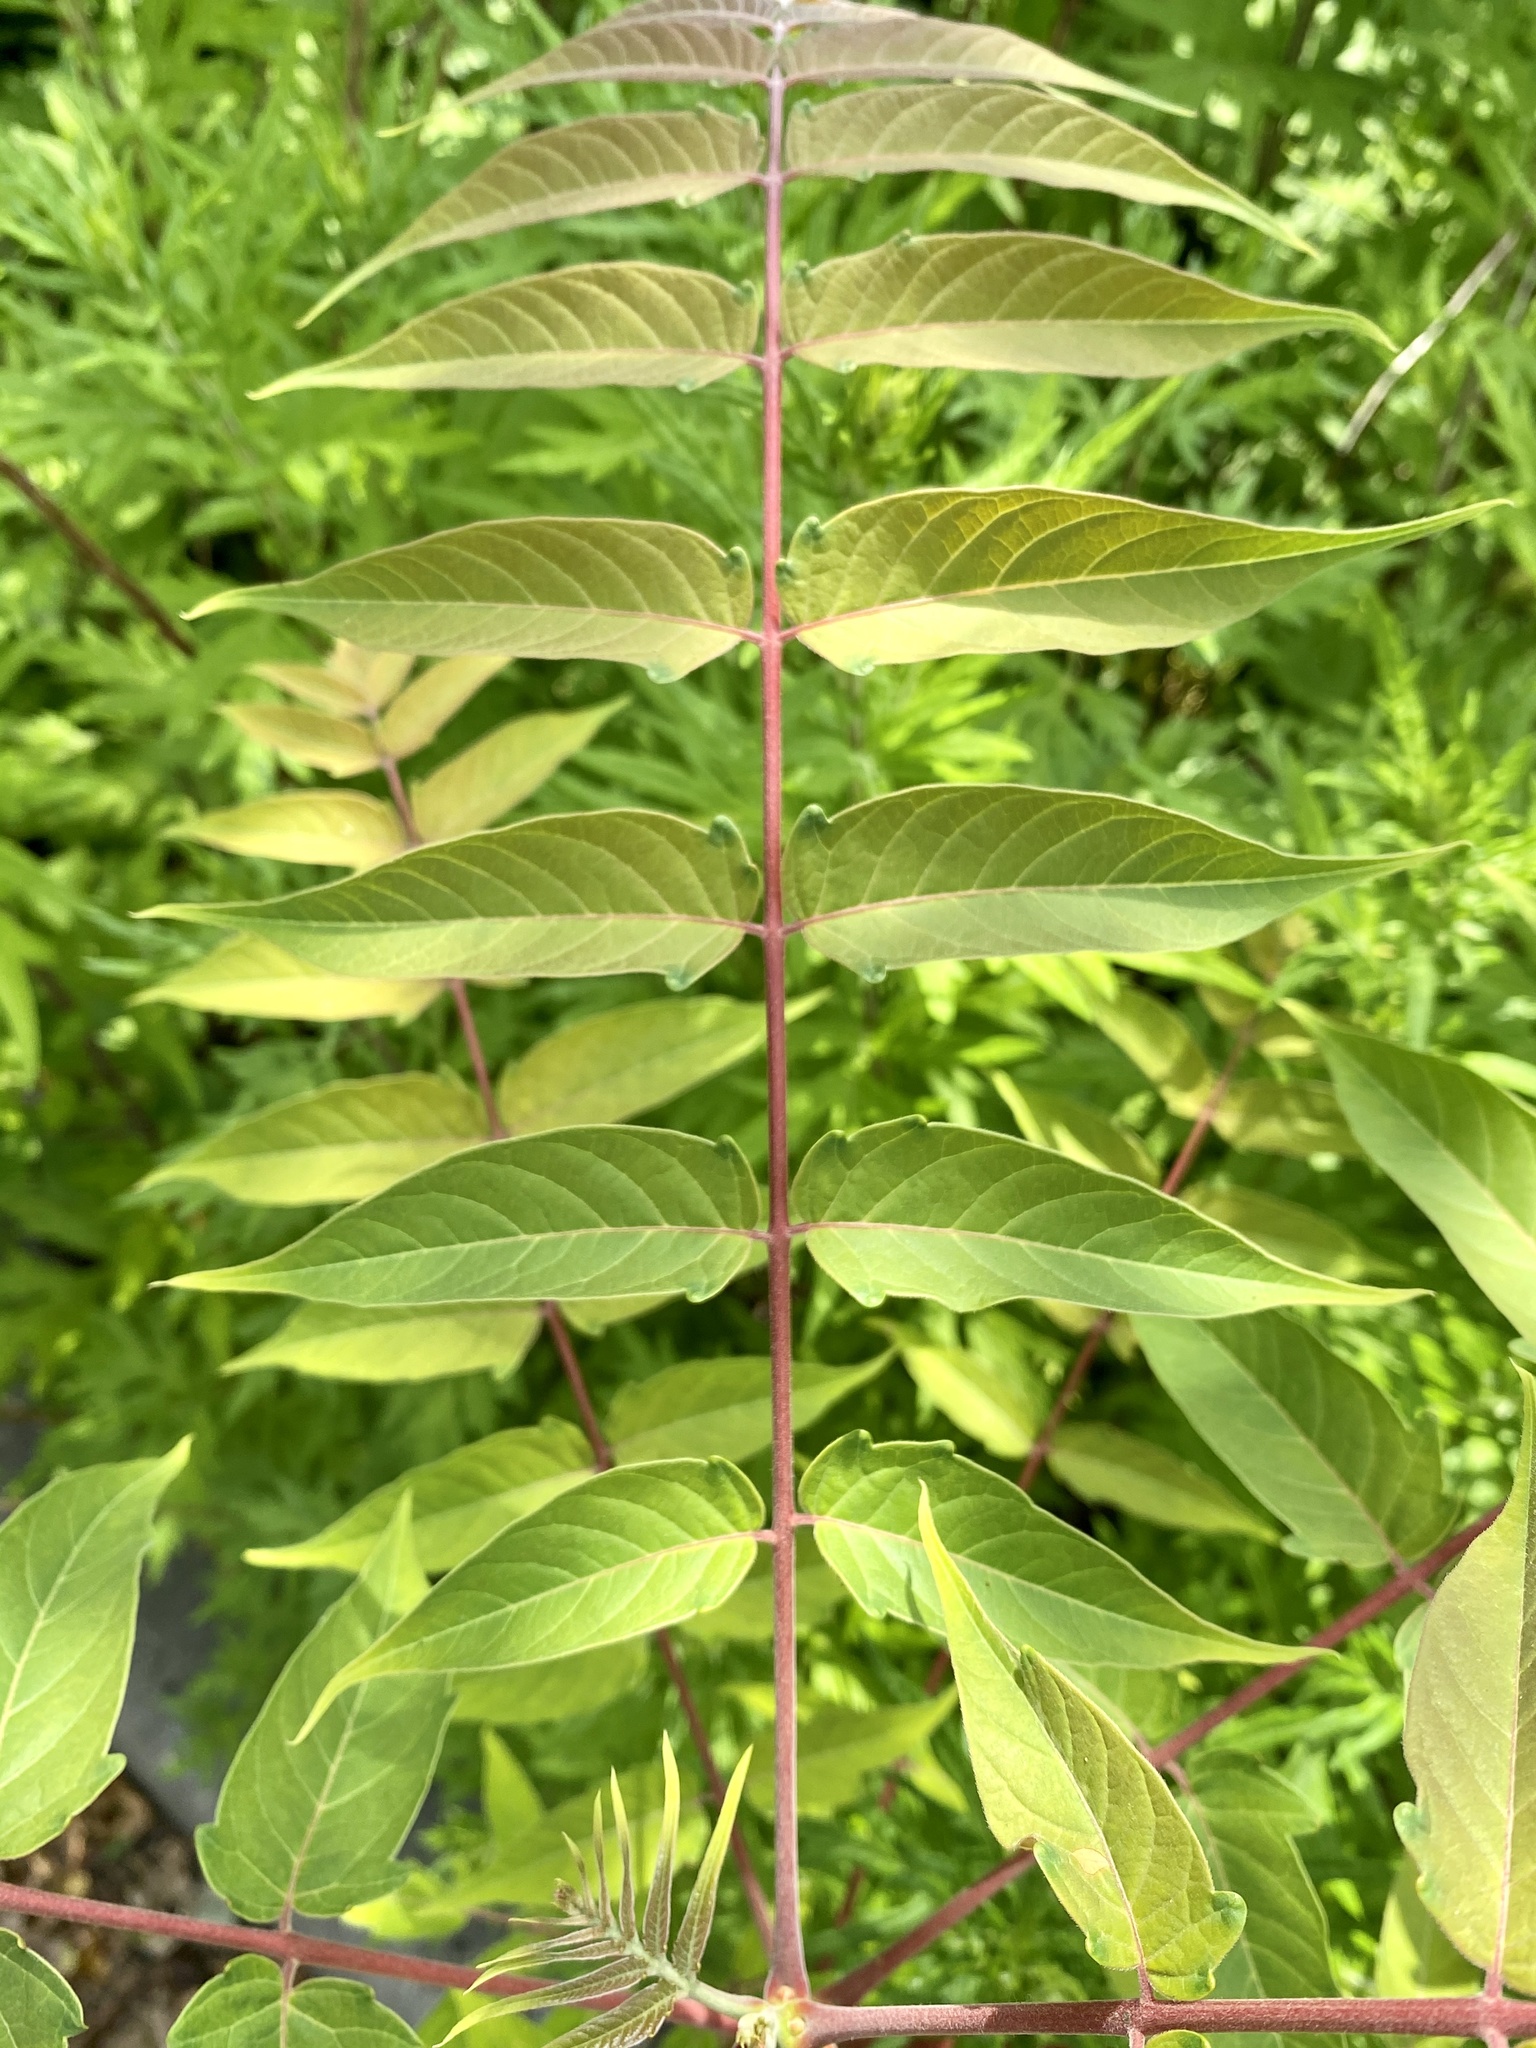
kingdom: Plantae
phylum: Tracheophyta
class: Magnoliopsida
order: Sapindales
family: Simaroubaceae
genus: Ailanthus
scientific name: Ailanthus altissima
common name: Tree-of-heaven
